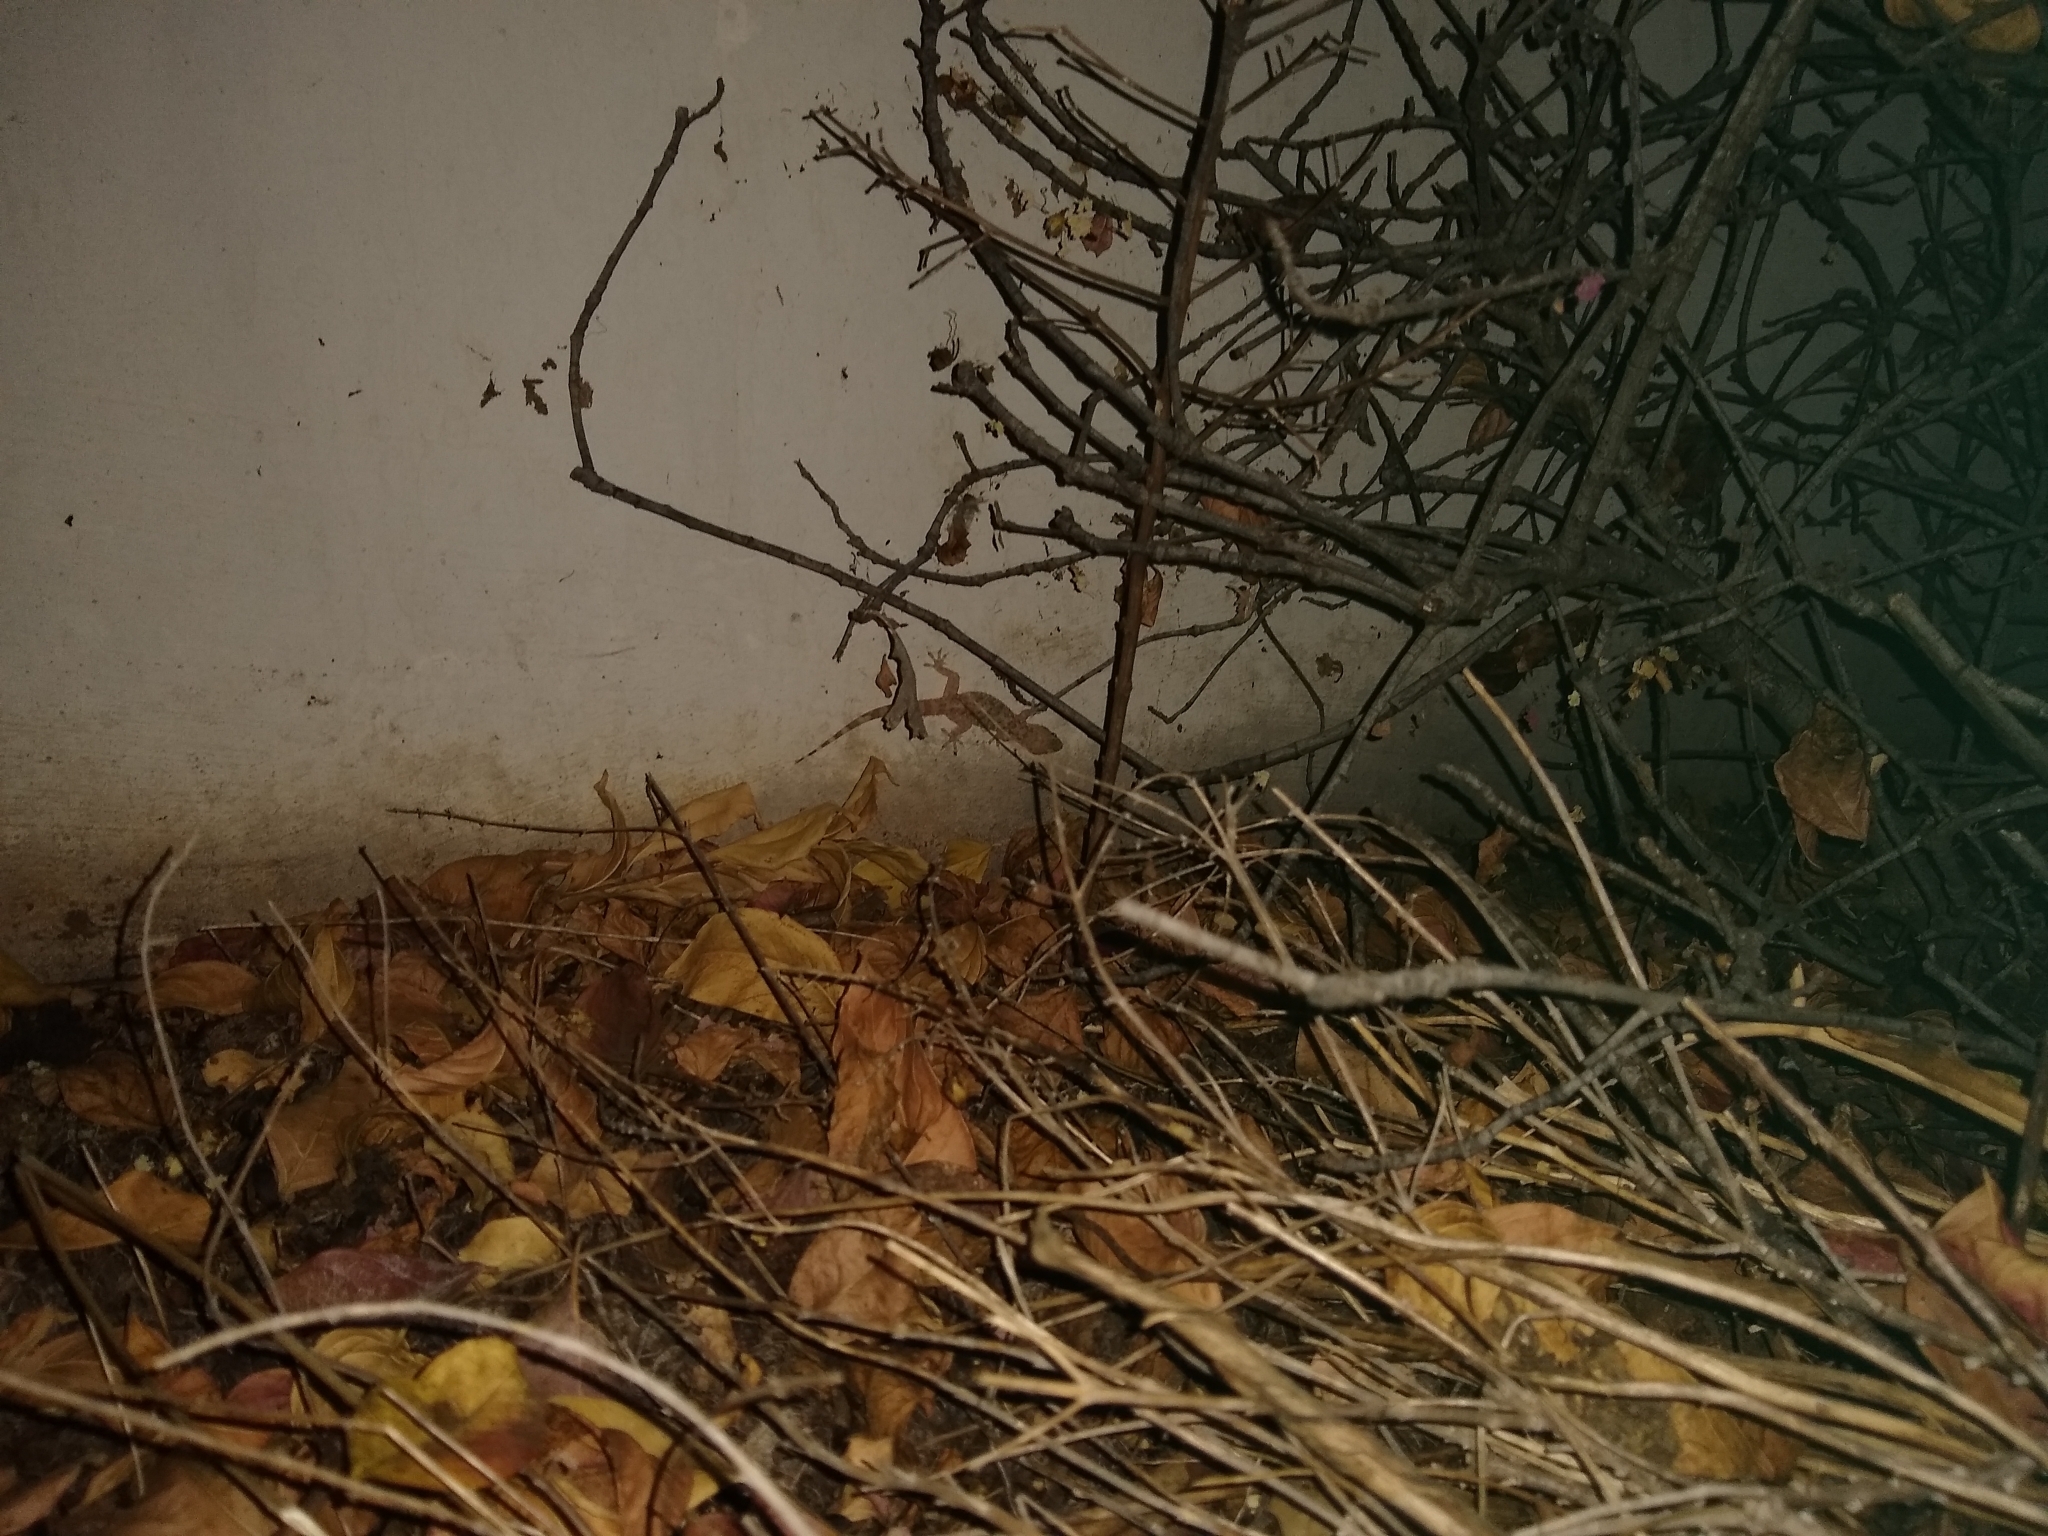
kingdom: Animalia
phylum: Chordata
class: Squamata
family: Gekkonidae
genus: Hemidactylus
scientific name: Hemidactylus turcicus
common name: Turkish gecko
